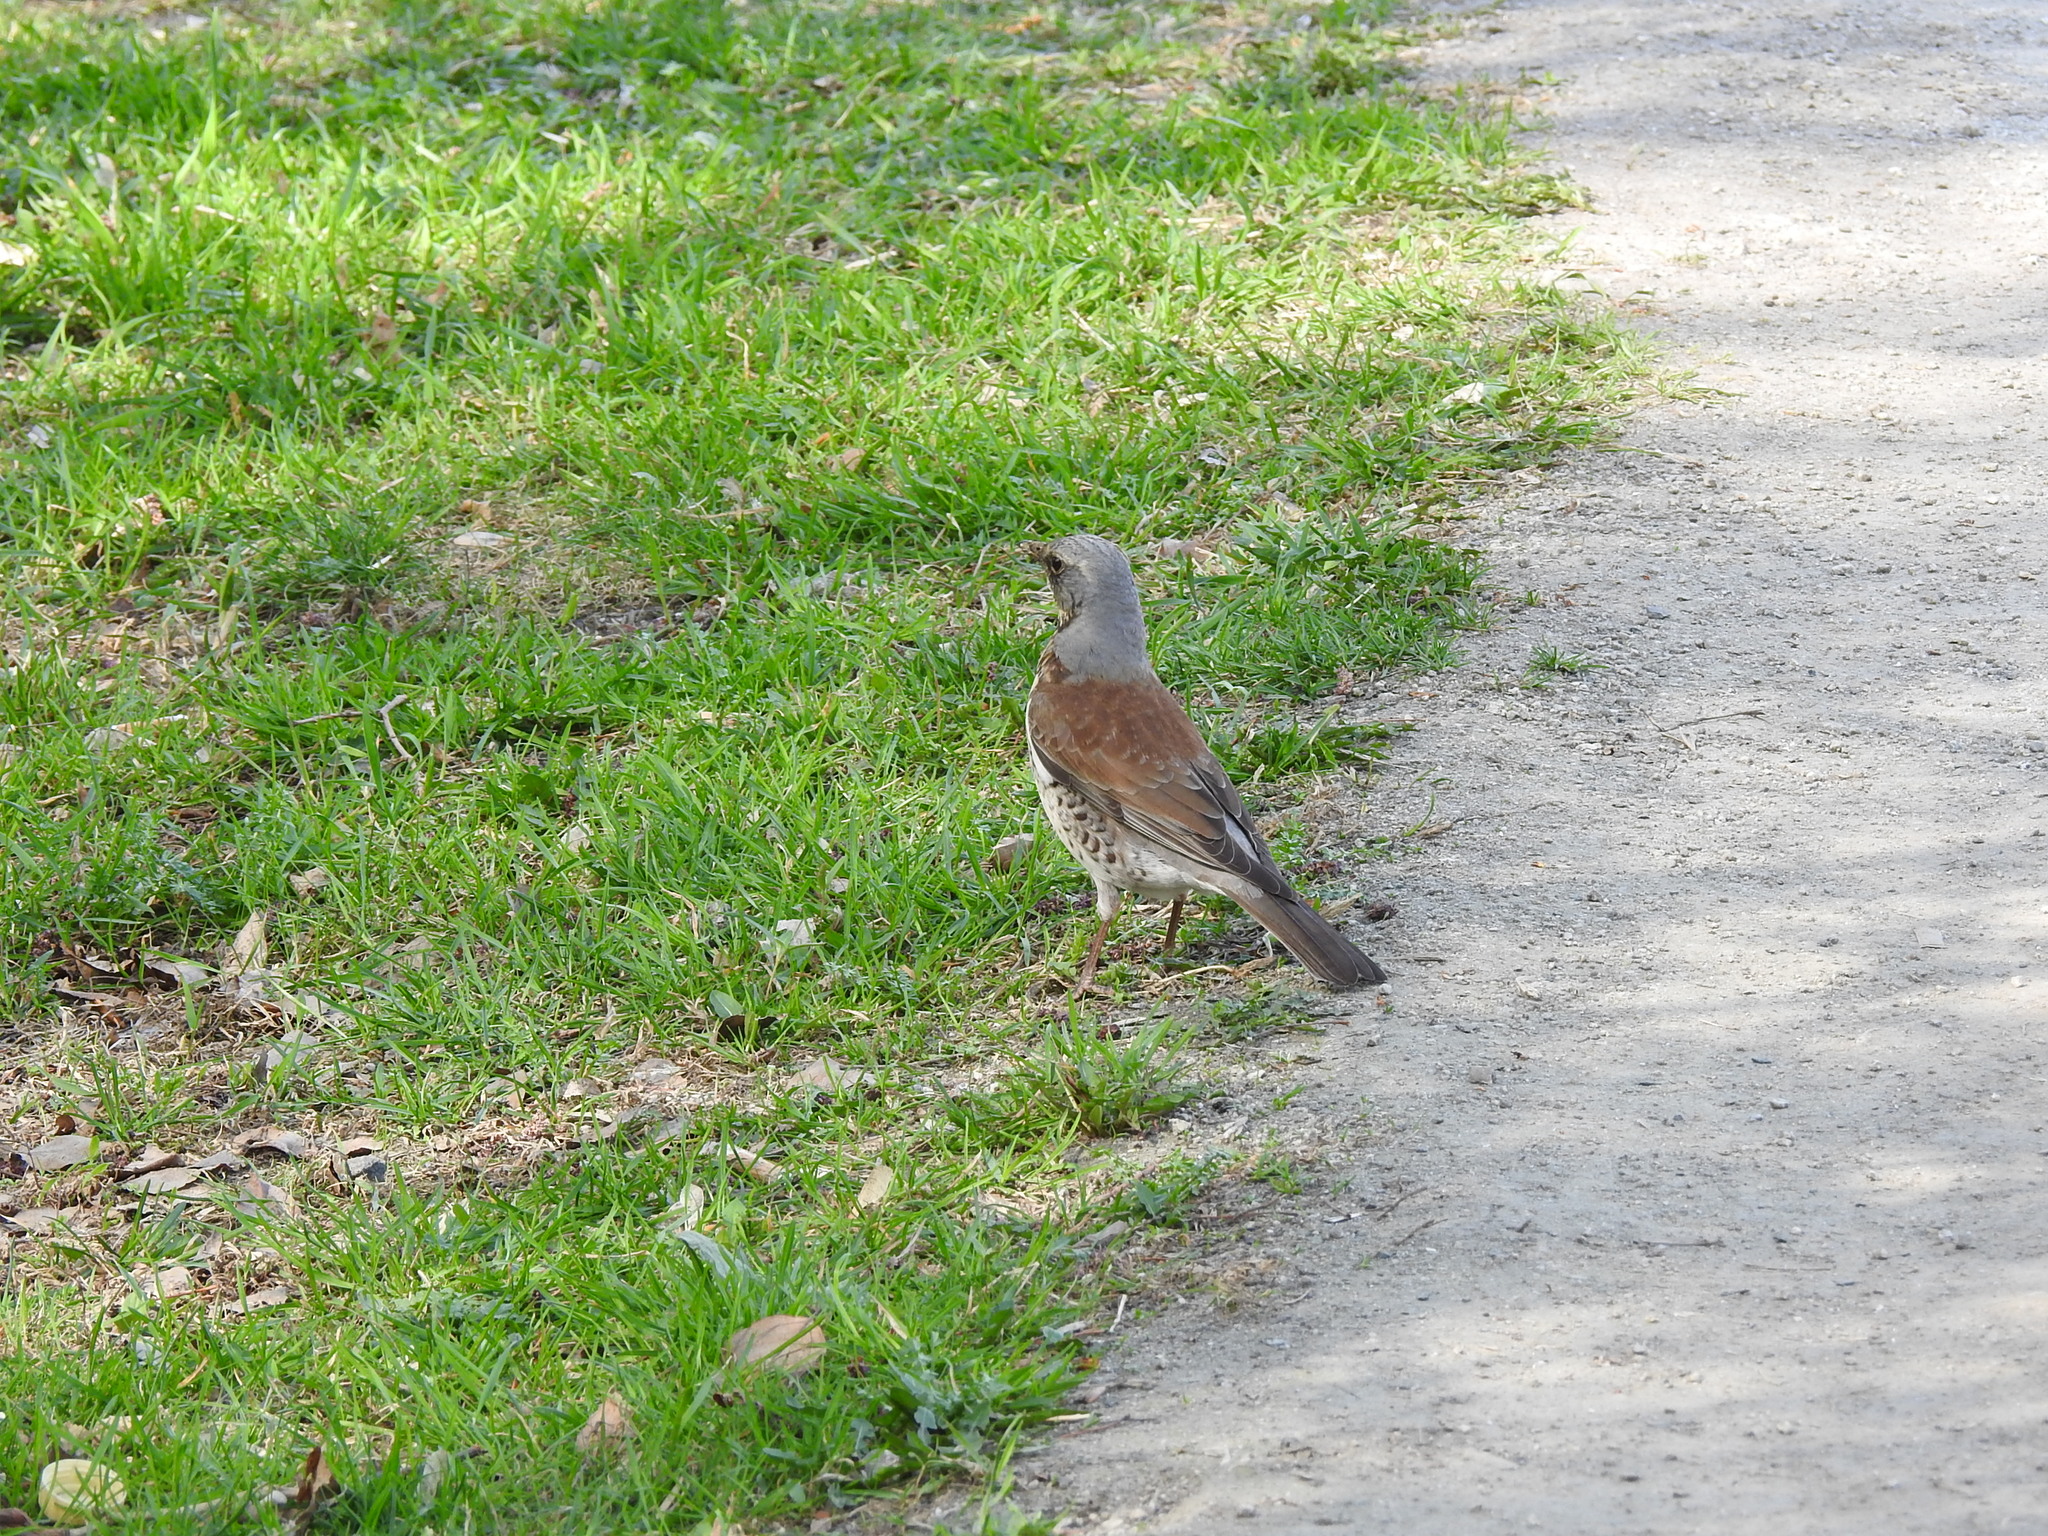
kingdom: Animalia
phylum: Chordata
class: Aves
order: Passeriformes
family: Turdidae
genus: Turdus
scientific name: Turdus pilaris
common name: Fieldfare
